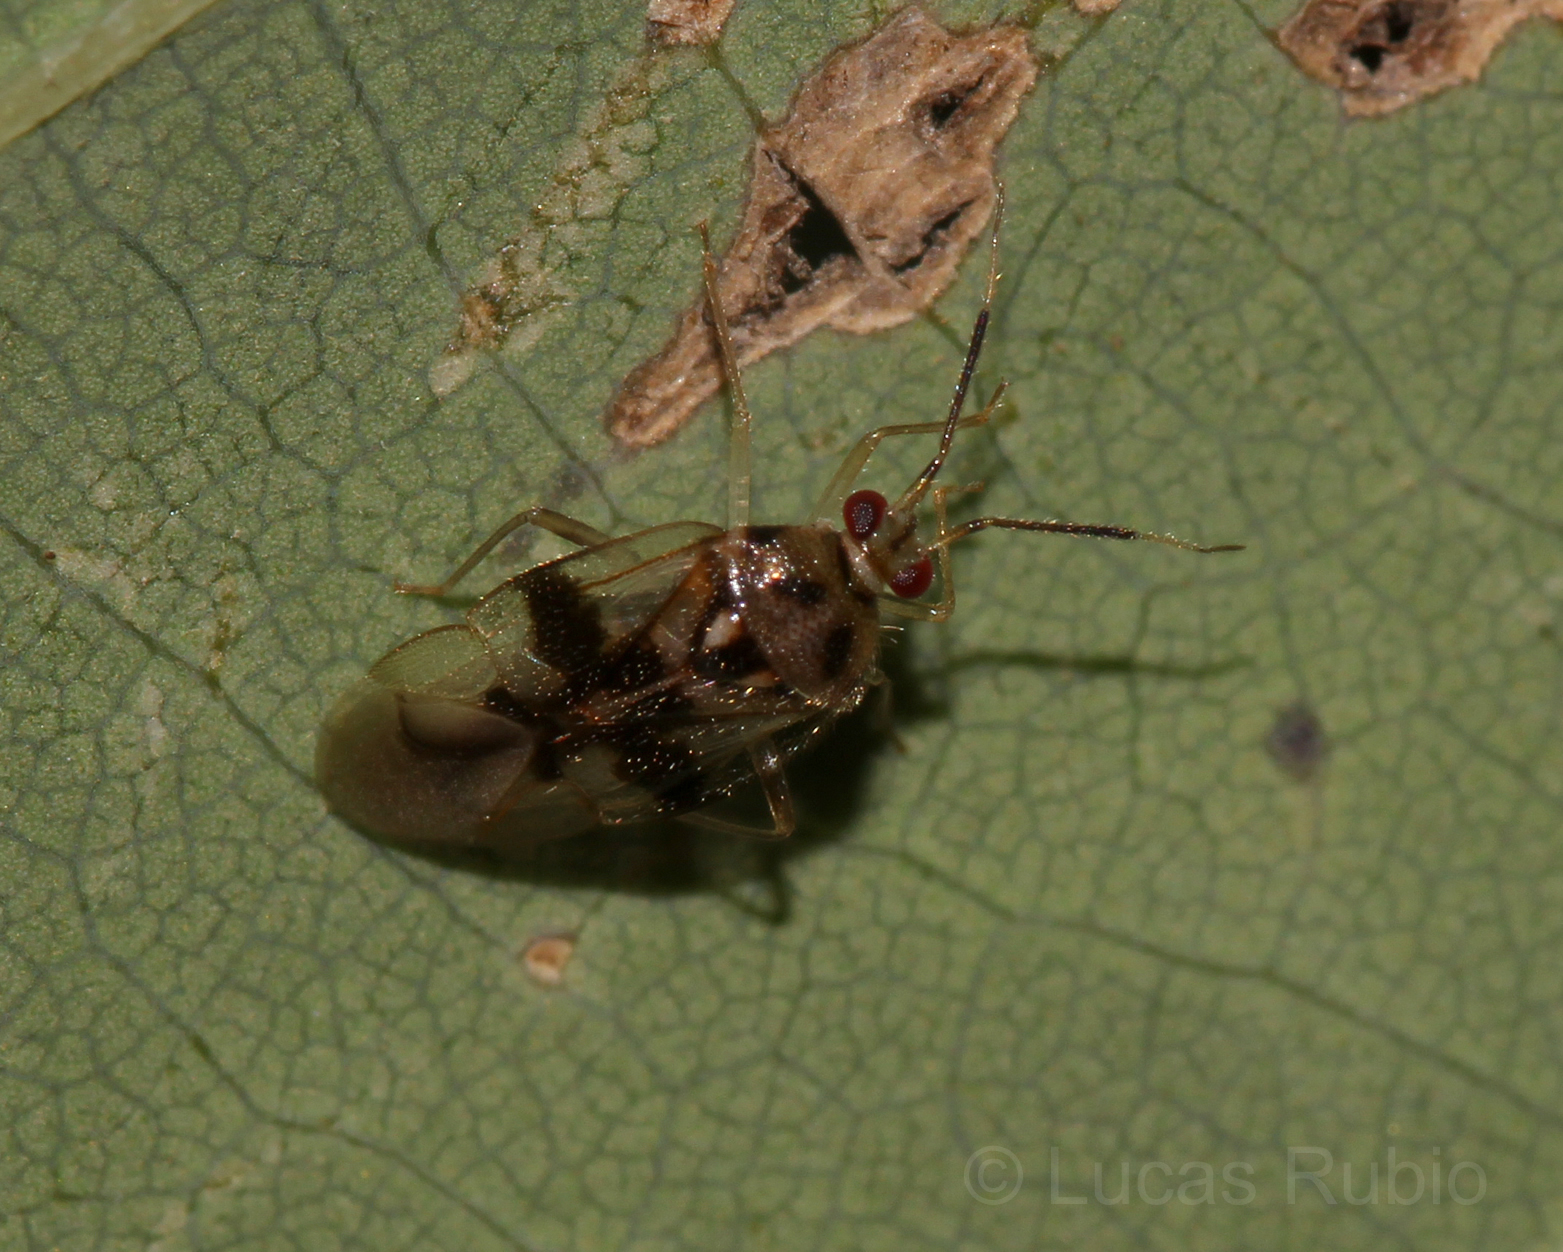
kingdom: Animalia
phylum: Arthropoda
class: Insecta
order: Hemiptera
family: Miridae
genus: Hyaliodocoris
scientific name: Hyaliodocoris insignis
